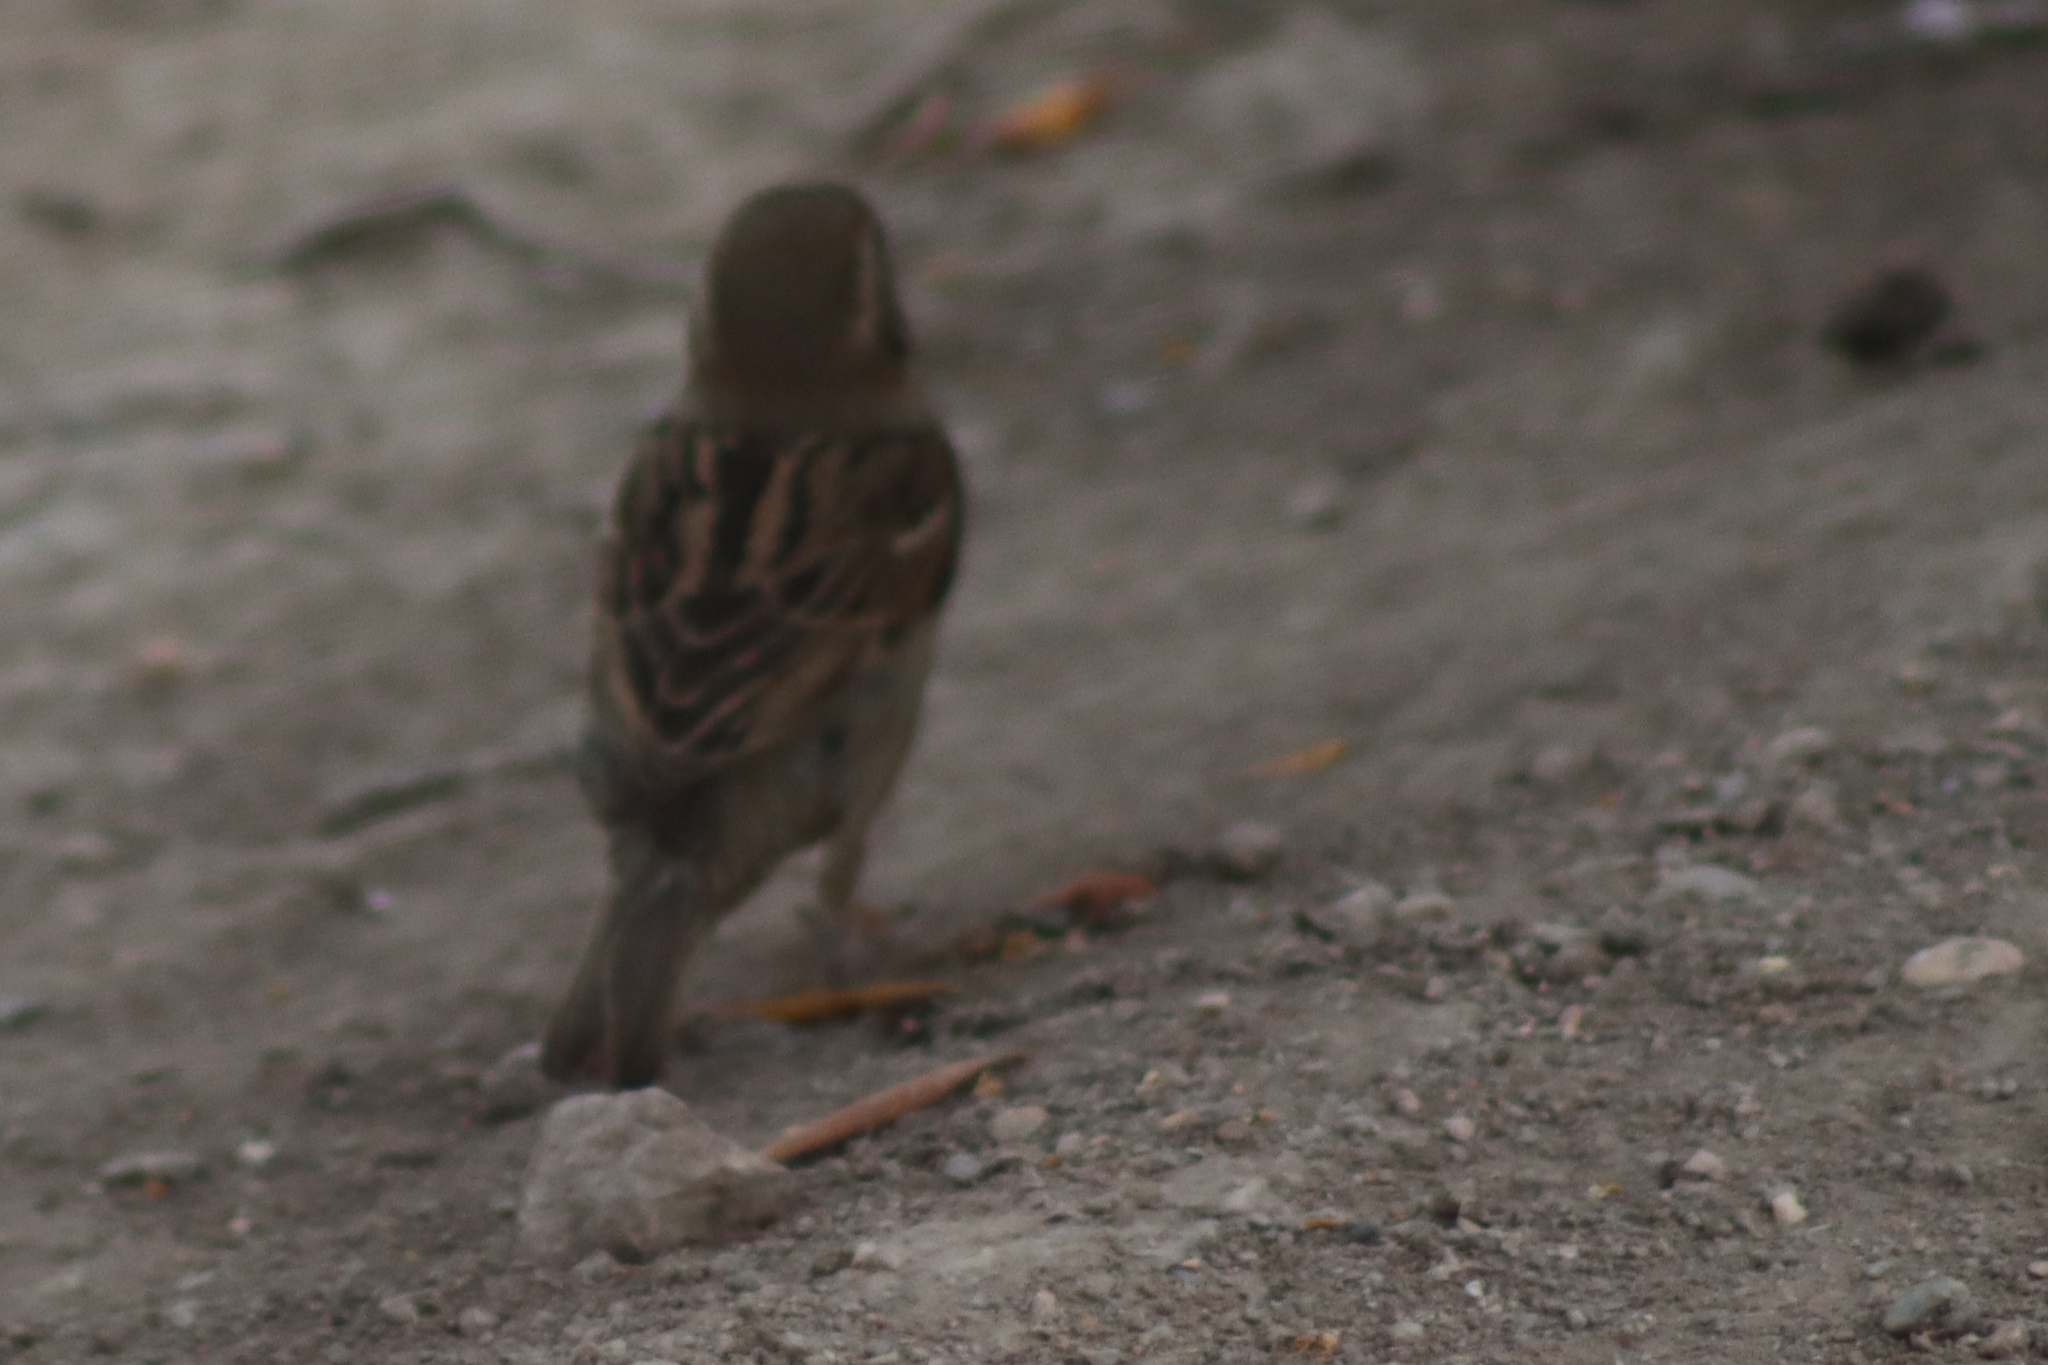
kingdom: Animalia
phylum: Chordata
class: Aves
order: Passeriformes
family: Passeridae
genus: Passer
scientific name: Passer domesticus
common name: House sparrow
